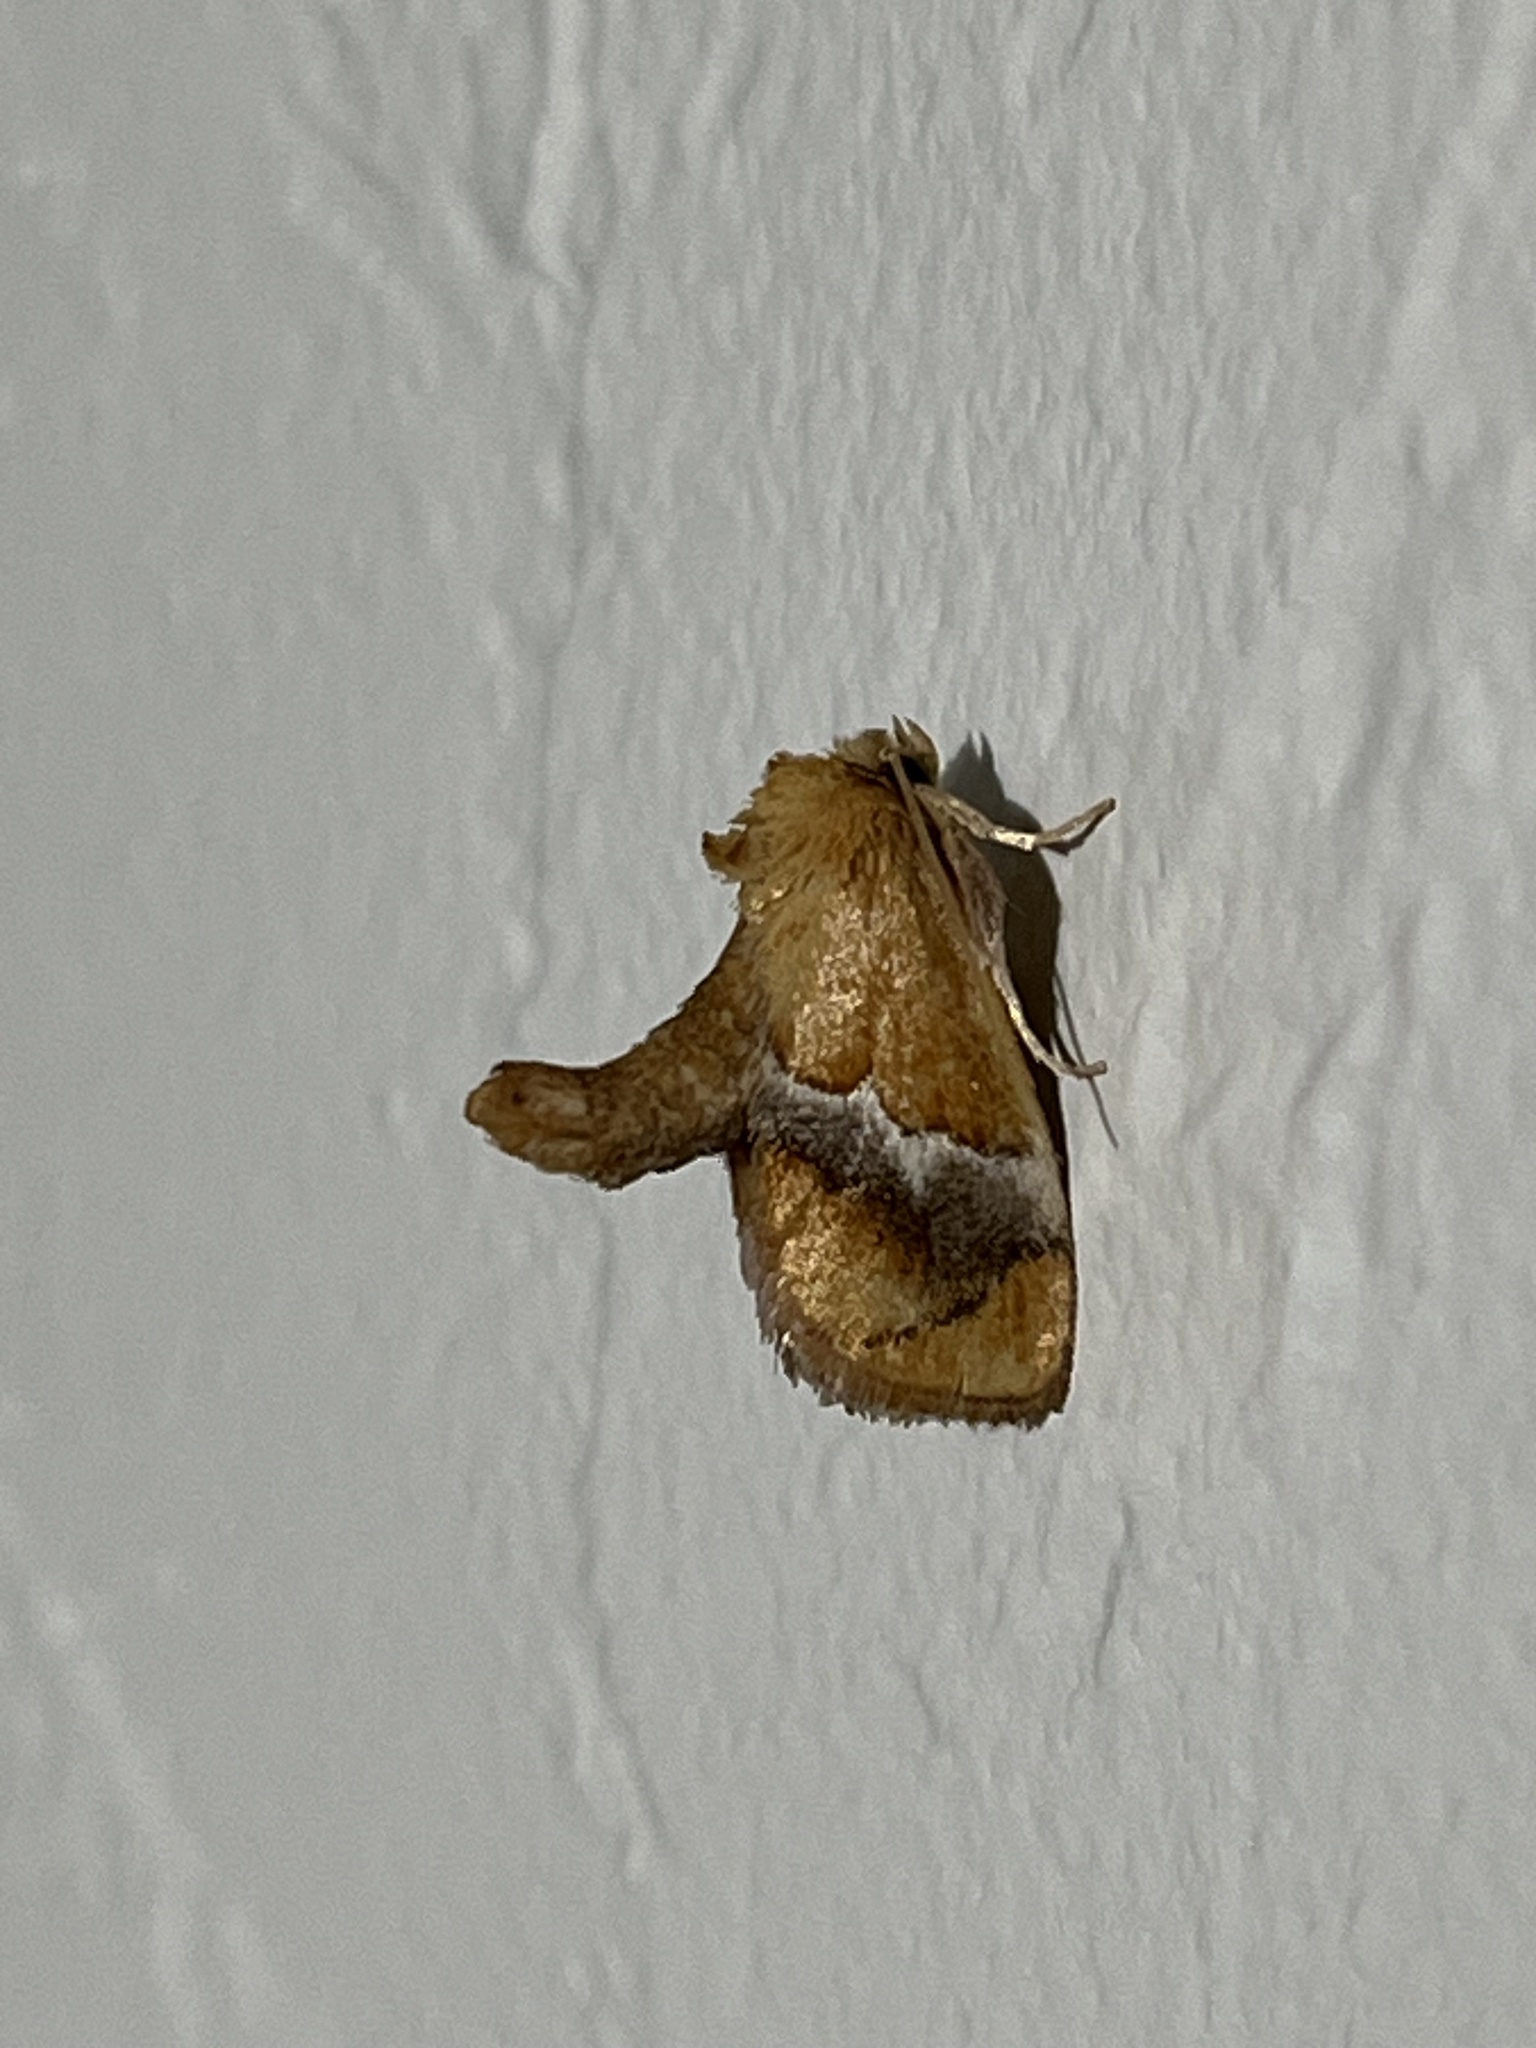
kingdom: Animalia
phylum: Arthropoda
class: Insecta
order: Lepidoptera
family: Limacodidae
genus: Lithacodes
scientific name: Lithacodes fasciola
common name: Yellow-shouldered slug moth
